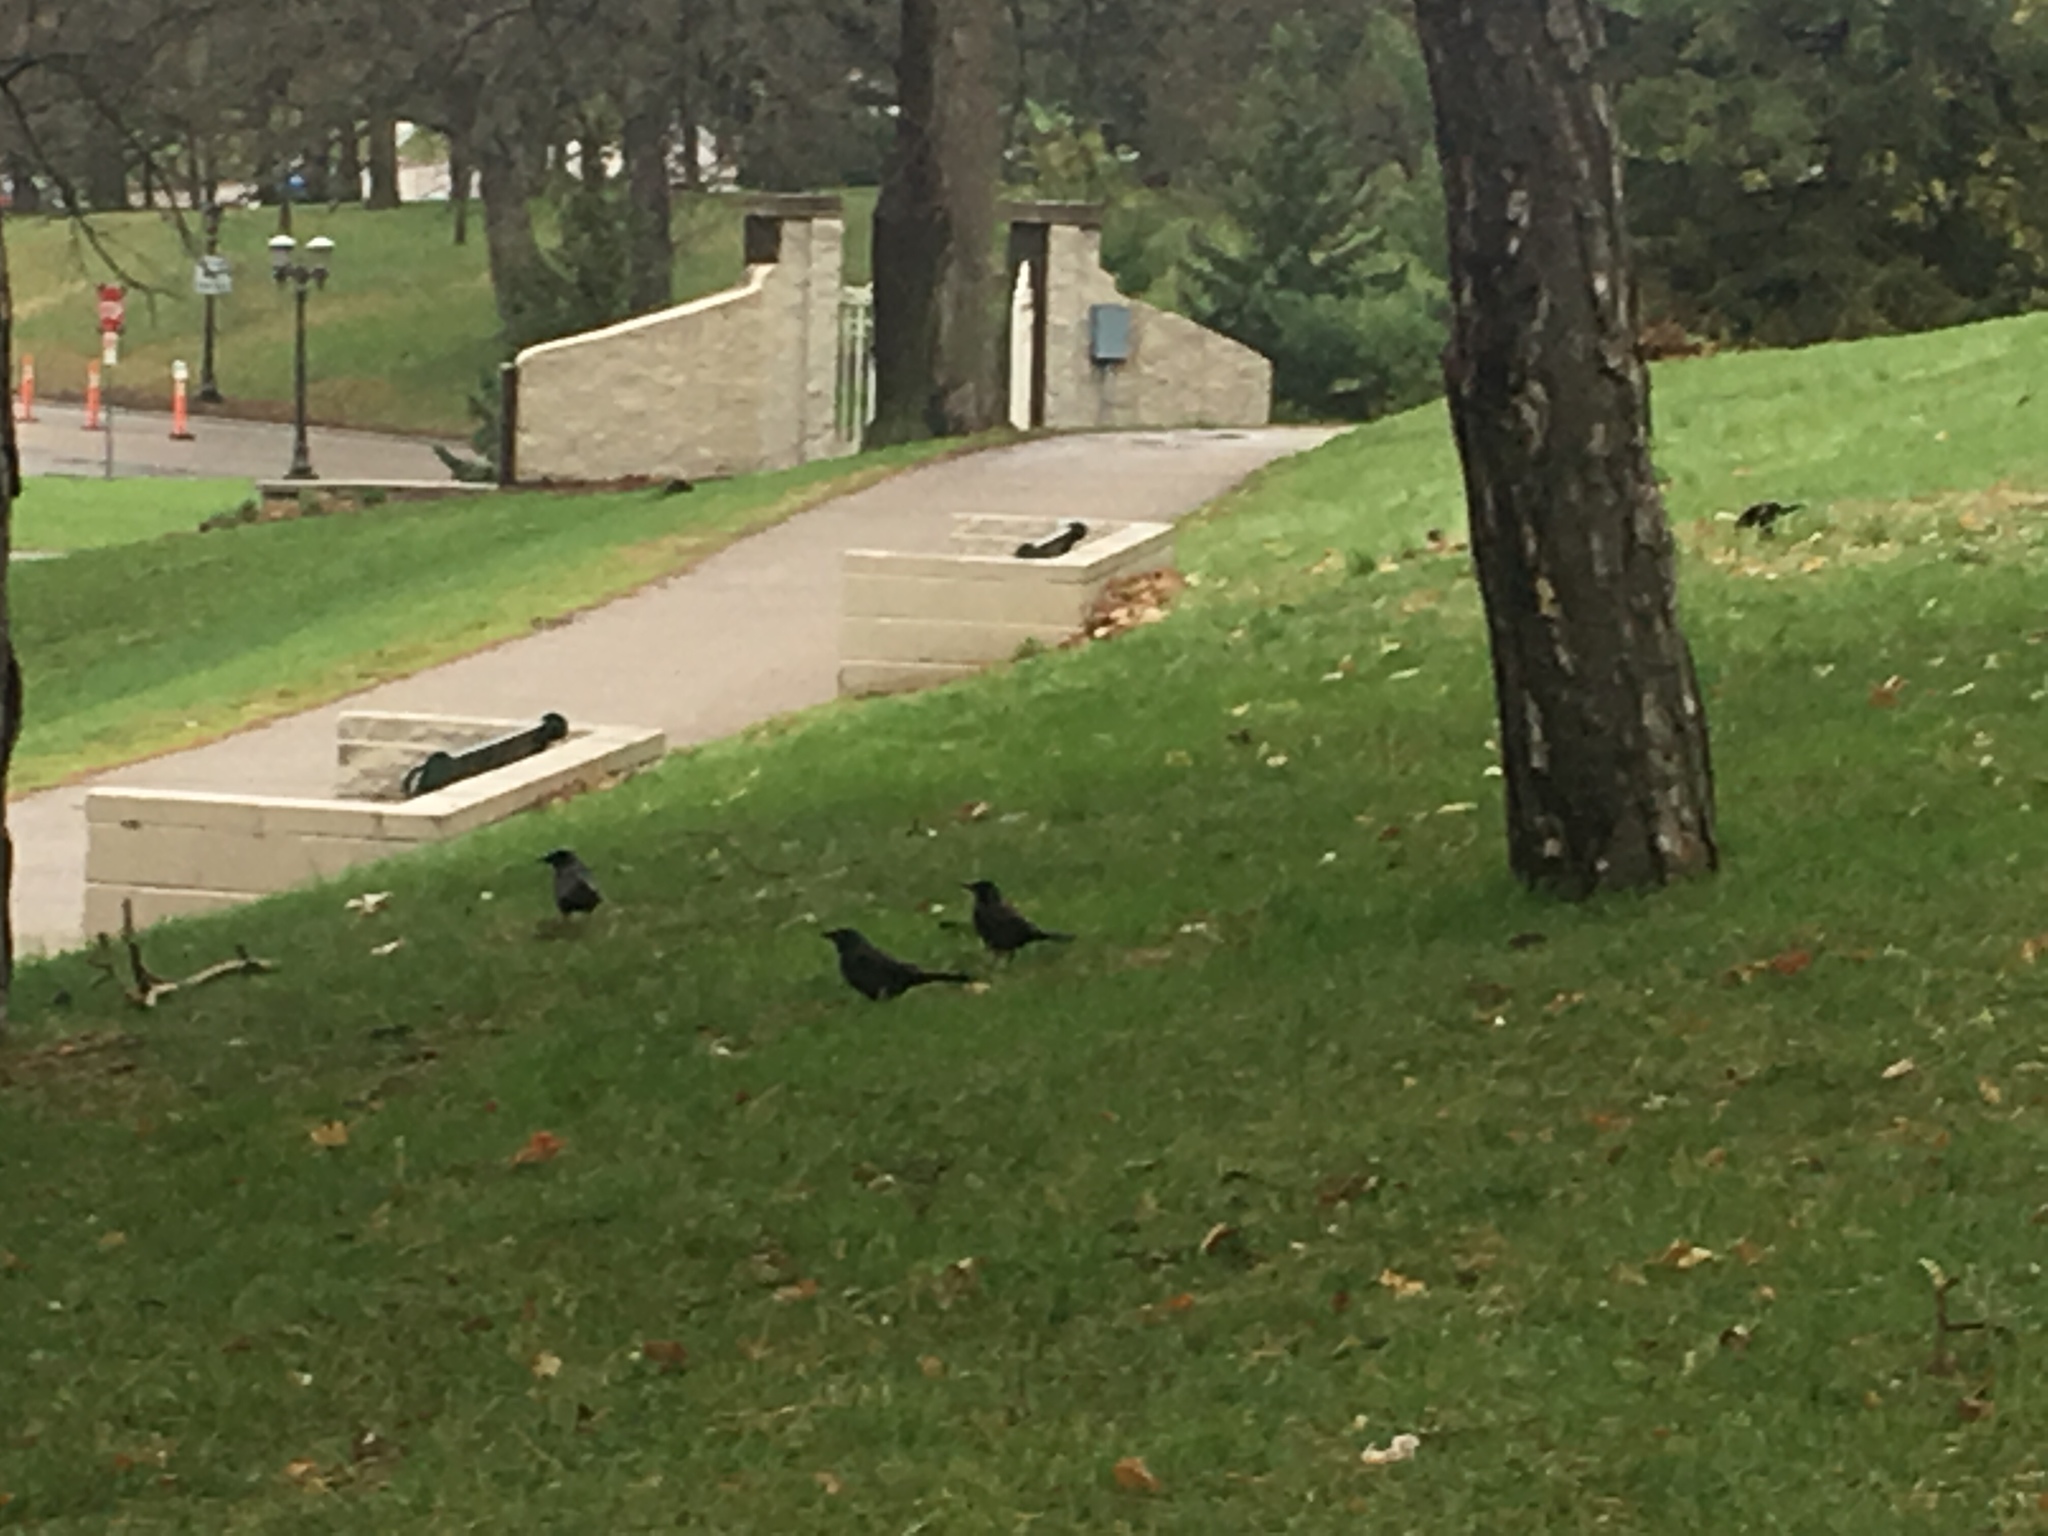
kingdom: Animalia
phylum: Chordata
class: Aves
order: Passeriformes
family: Icteridae
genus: Quiscalus
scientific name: Quiscalus quiscula
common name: Common grackle
